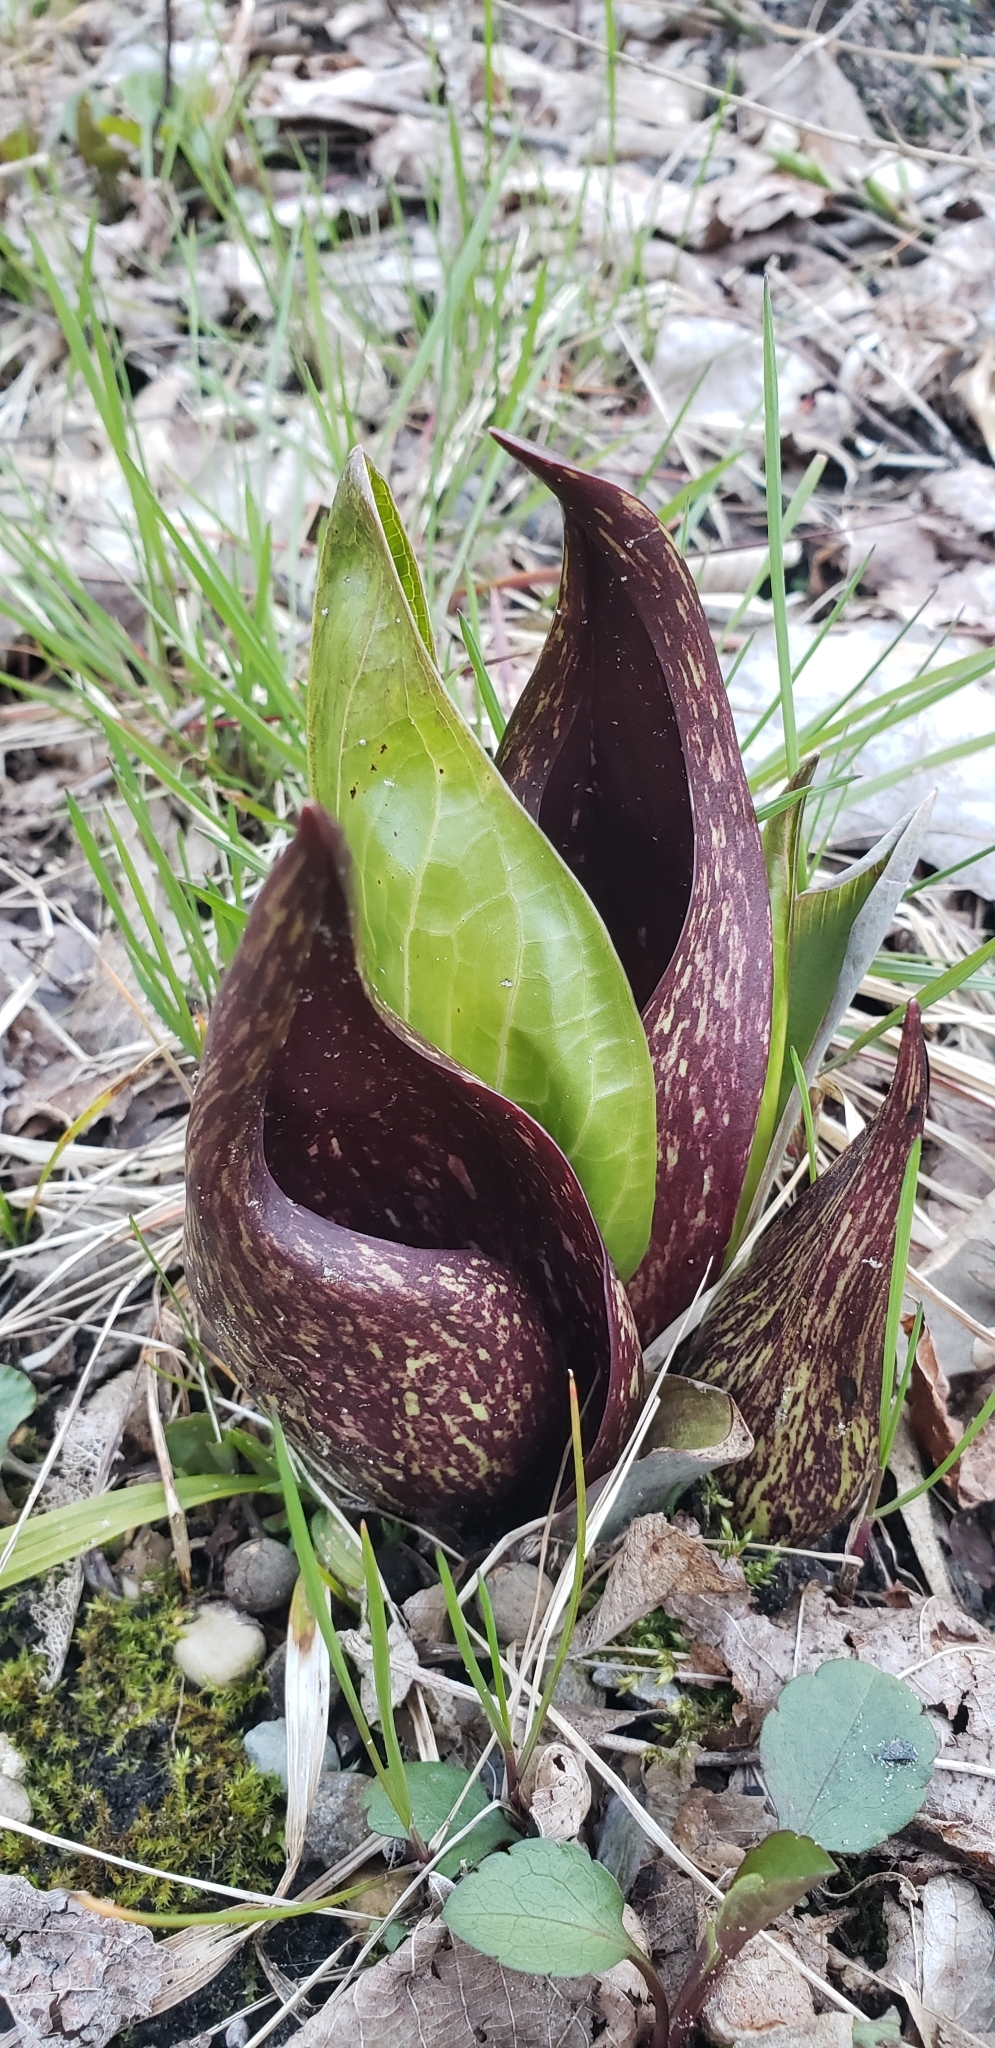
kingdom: Plantae
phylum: Tracheophyta
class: Liliopsida
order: Alismatales
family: Araceae
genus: Symplocarpus
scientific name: Symplocarpus foetidus
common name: Eastern skunk cabbage
